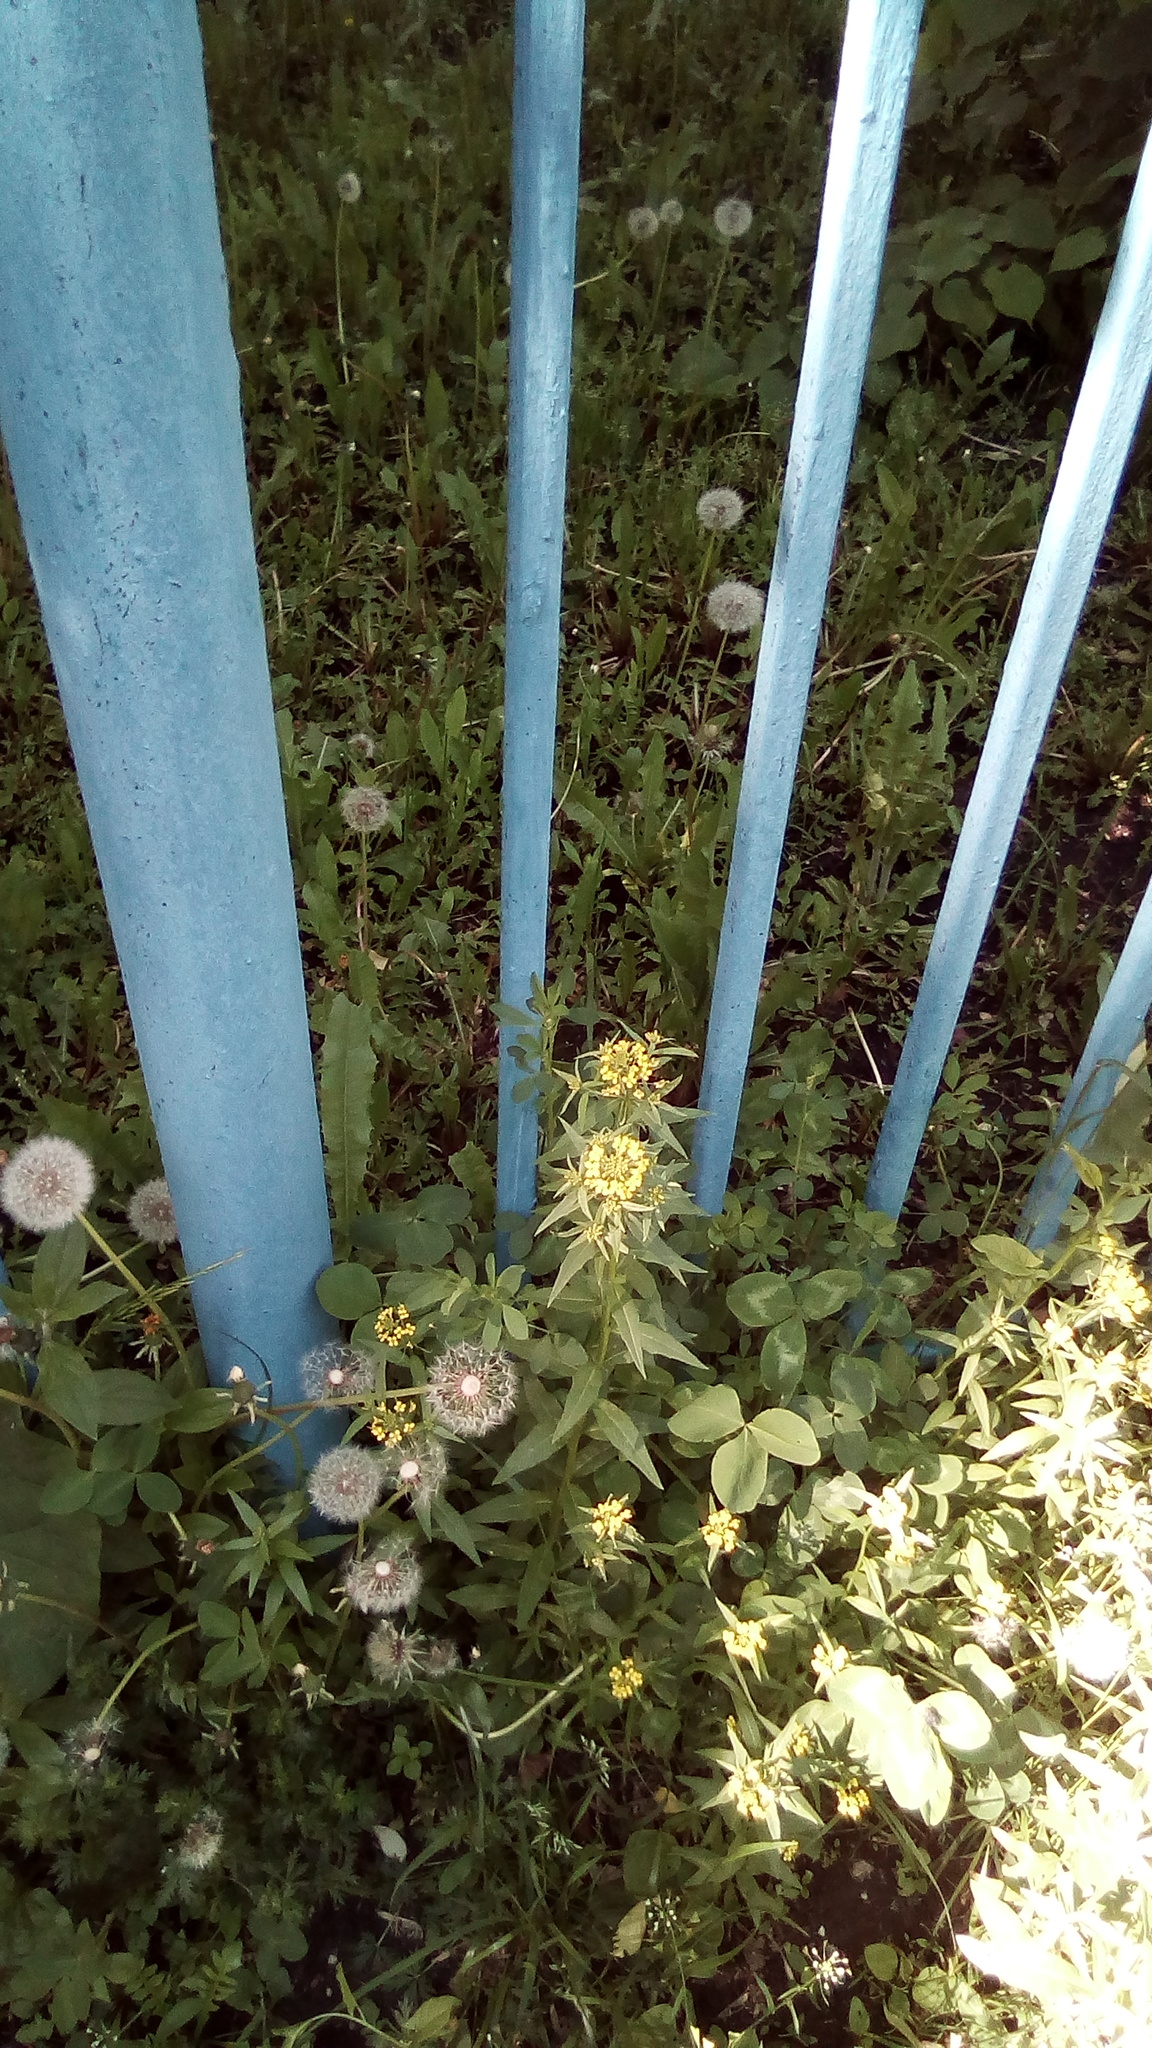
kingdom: Plantae
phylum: Tracheophyta
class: Magnoliopsida
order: Brassicales
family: Brassicaceae
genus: Erysimum
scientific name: Erysimum cheiranthoides
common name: Treacle mustard
